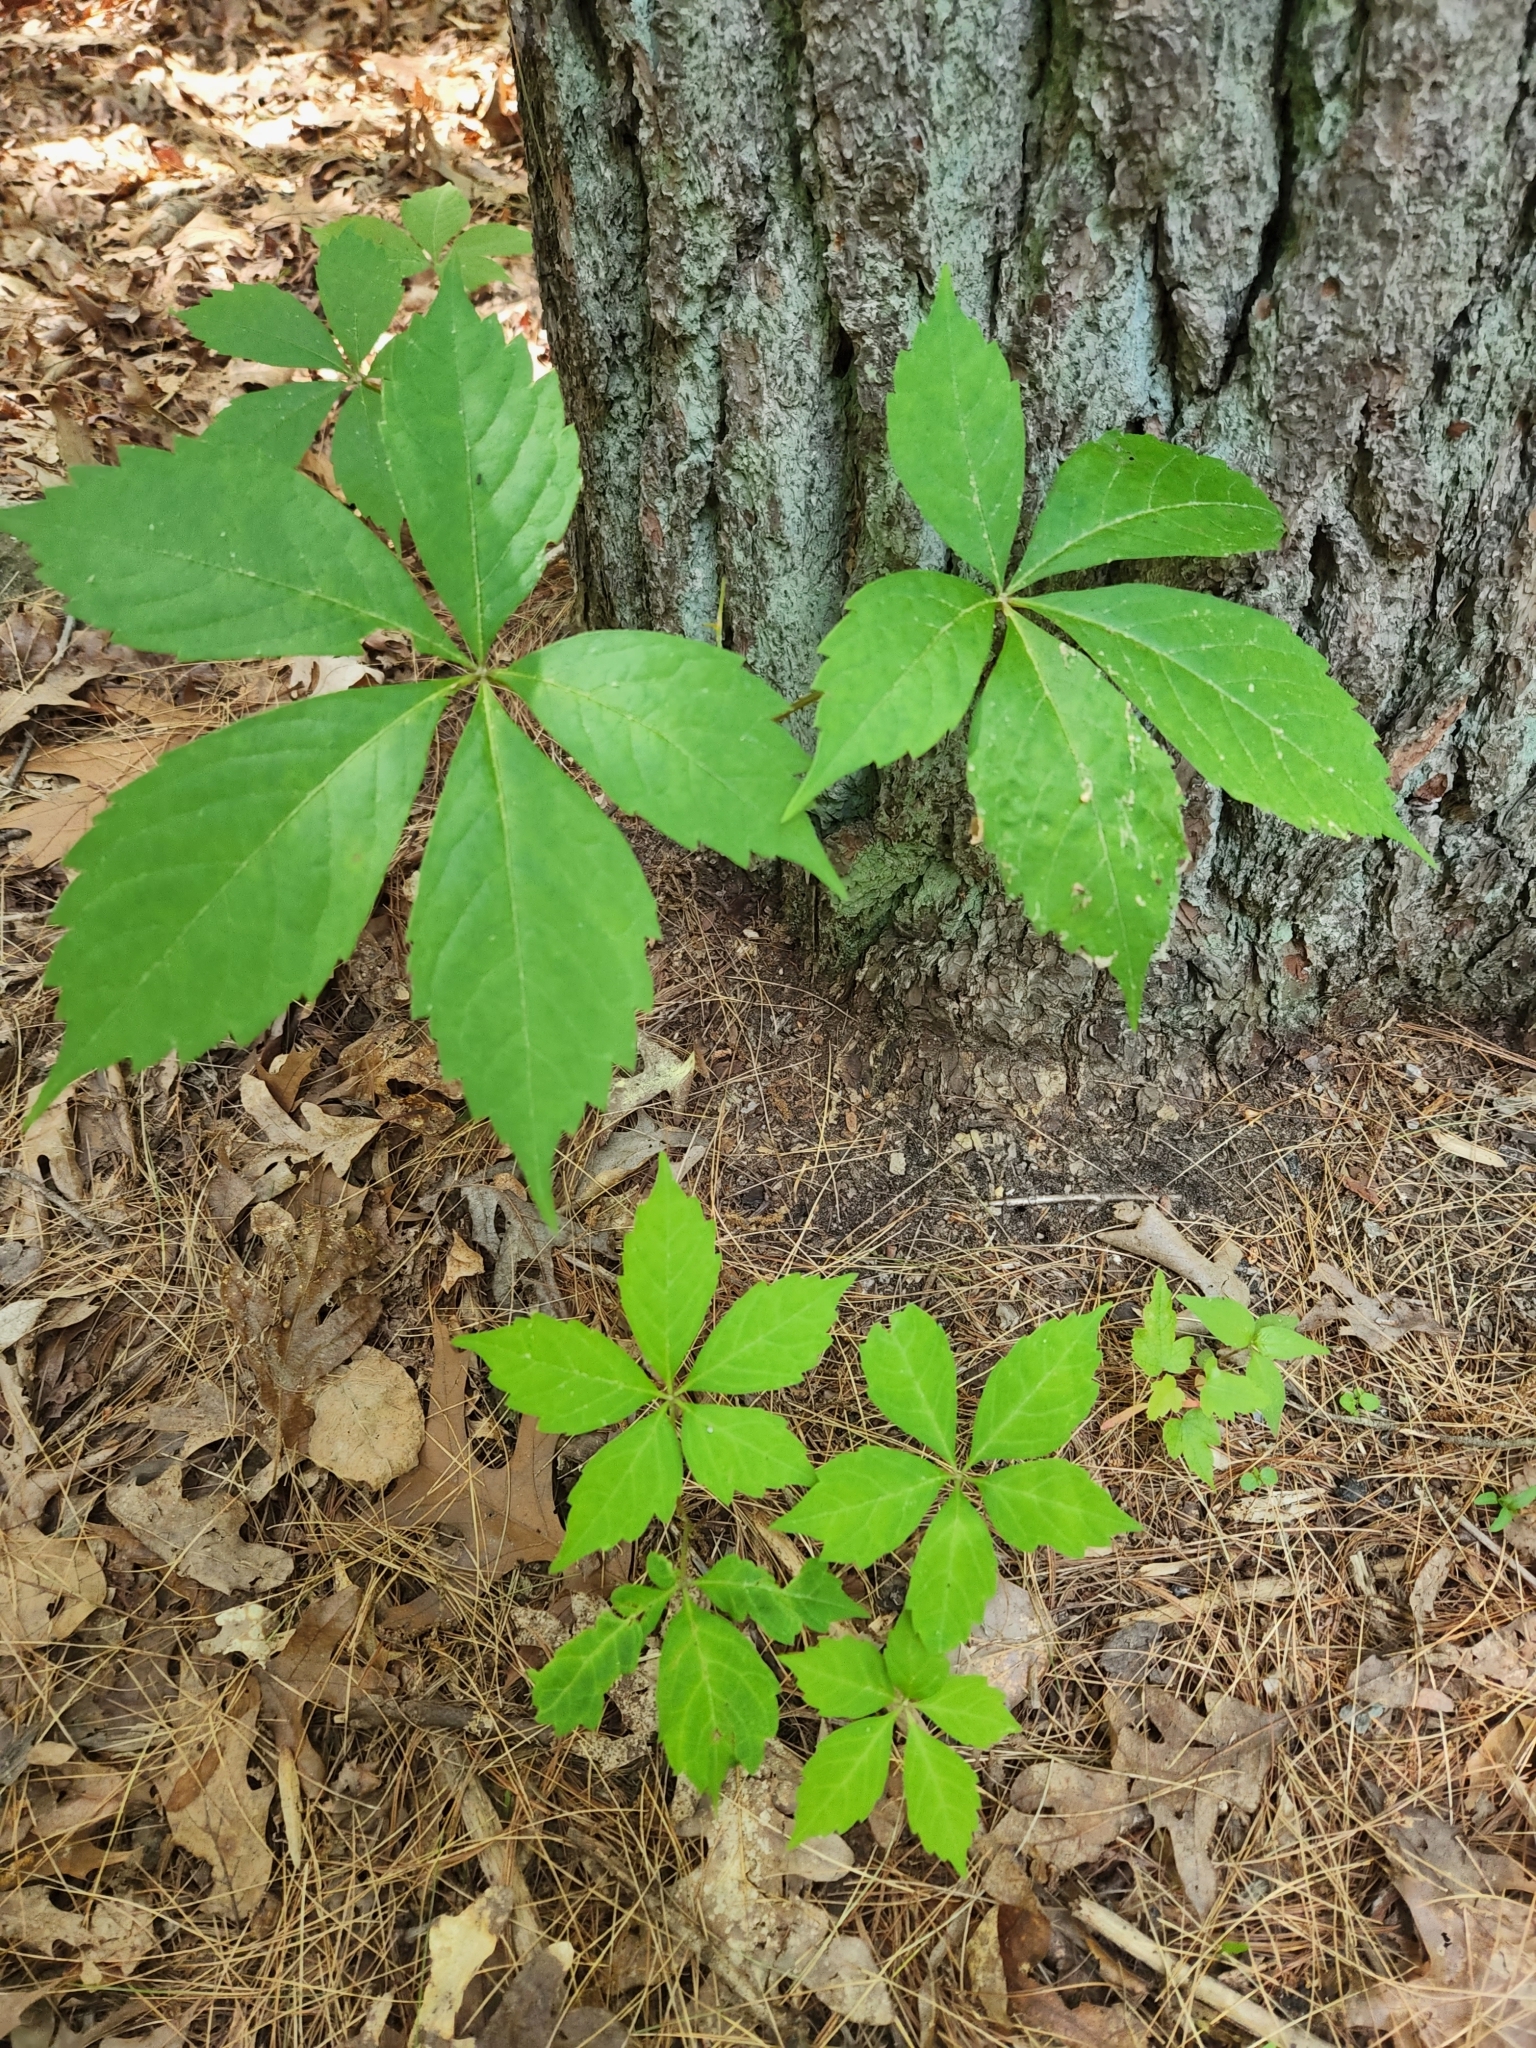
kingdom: Plantae
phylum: Tracheophyta
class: Magnoliopsida
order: Vitales
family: Vitaceae
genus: Parthenocissus
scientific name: Parthenocissus quinquefolia
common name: Virginia-creeper
